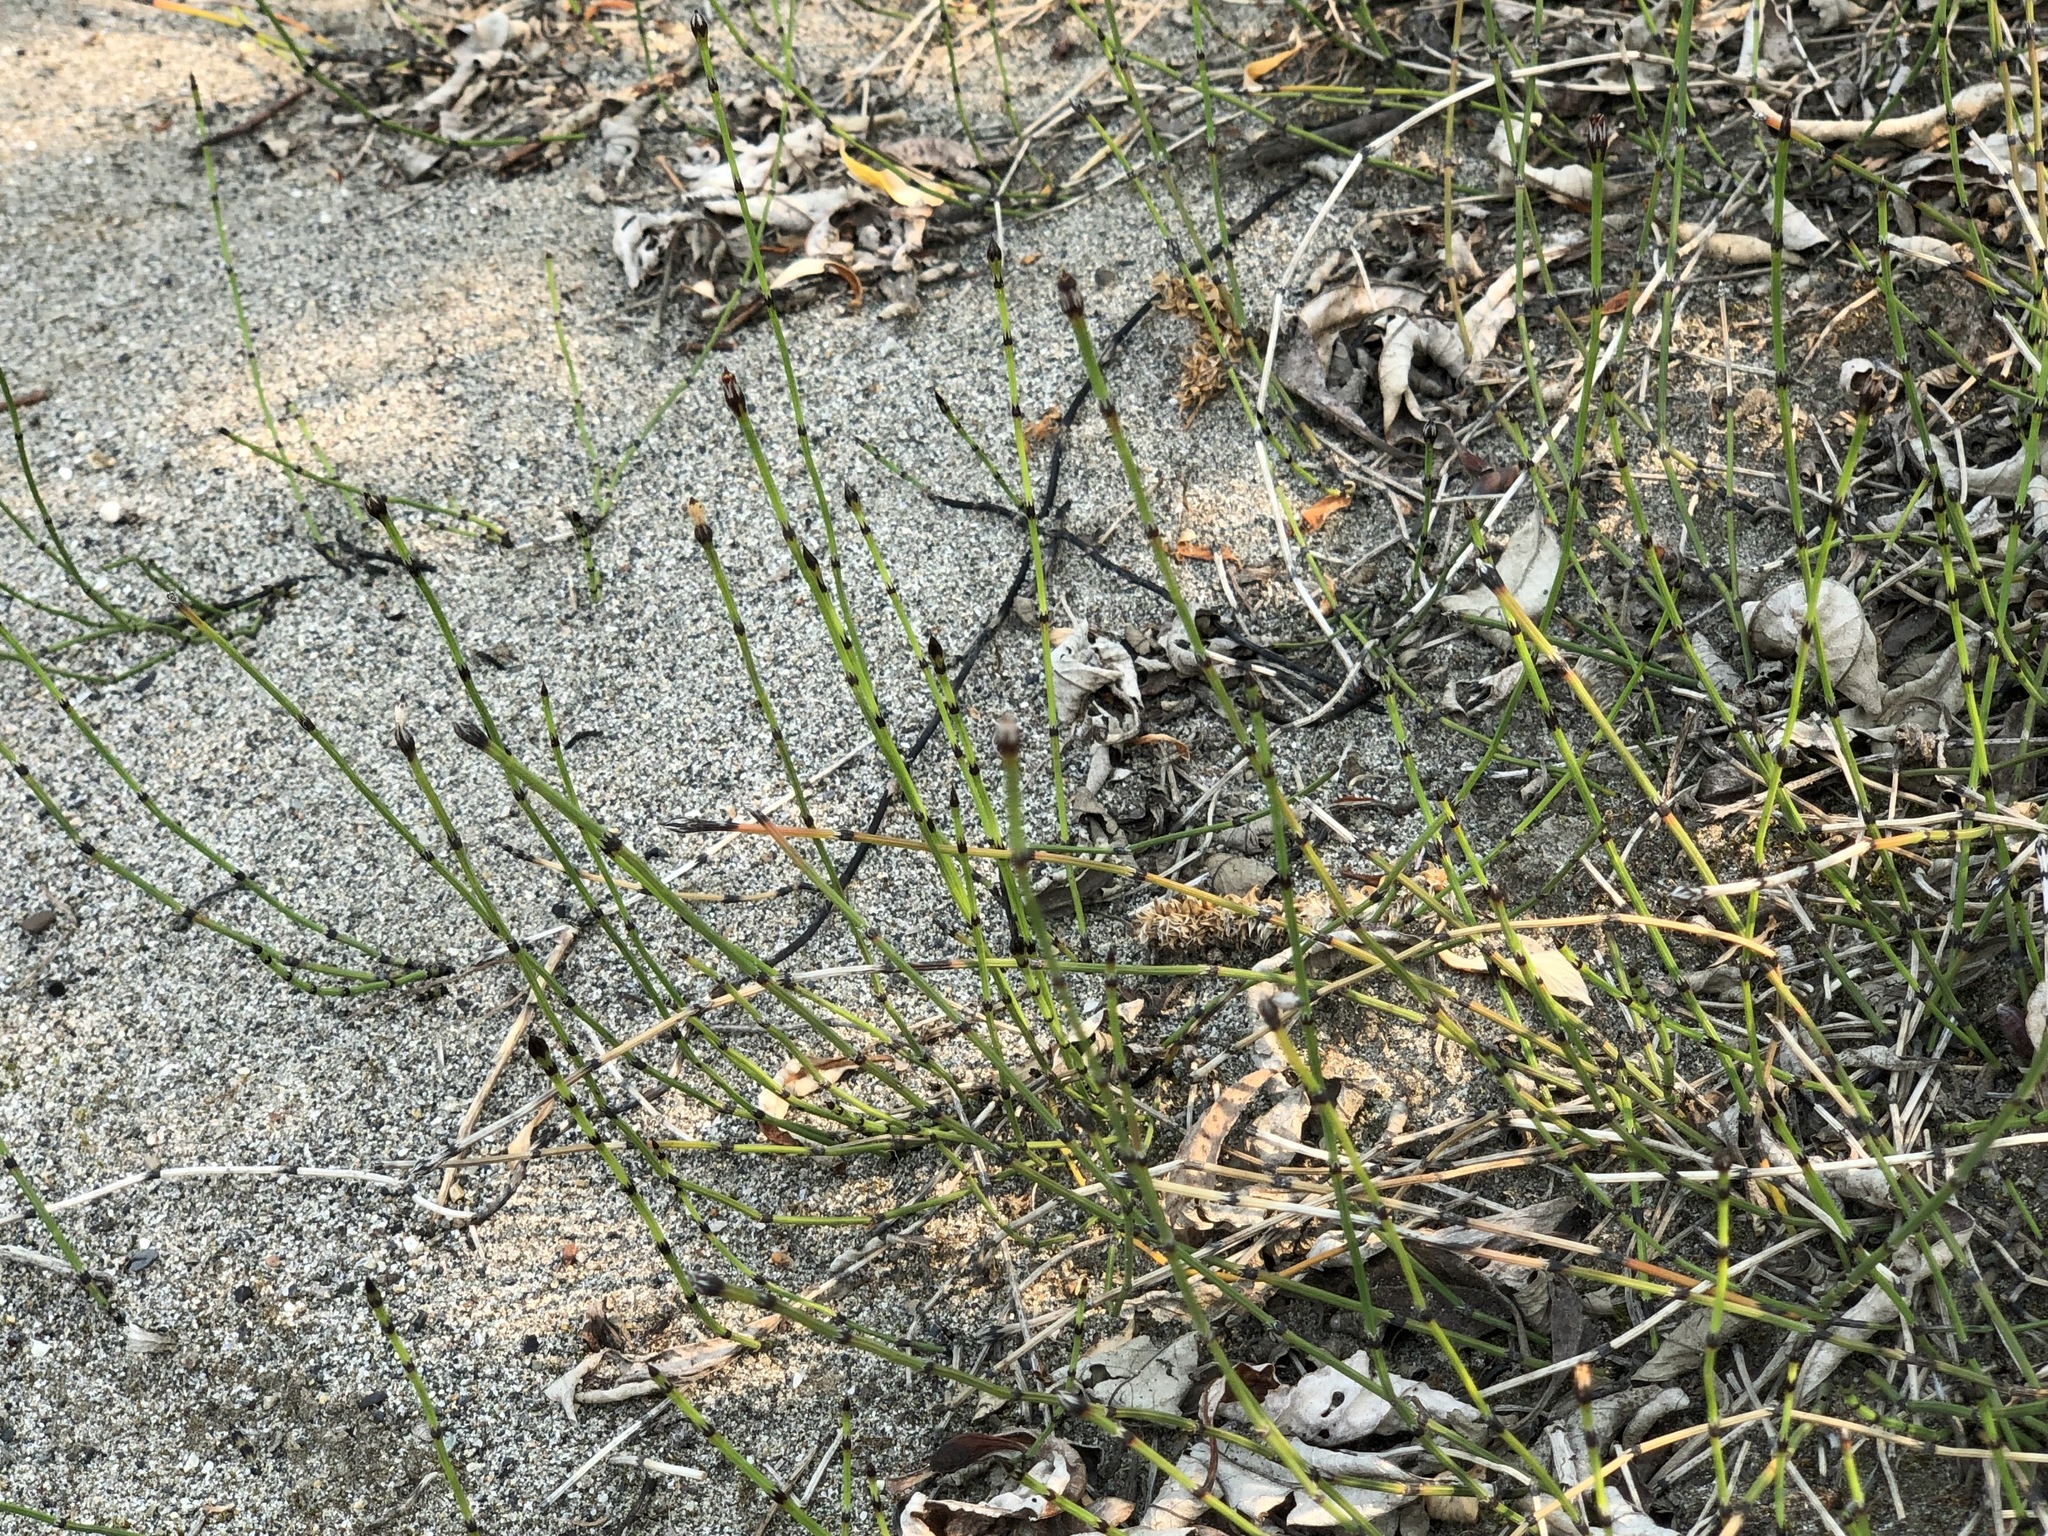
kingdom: Plantae
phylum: Tracheophyta
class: Polypodiopsida
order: Equisetales
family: Equisetaceae
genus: Equisetum
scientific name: Equisetum variegatum
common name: Variegated horsetail
